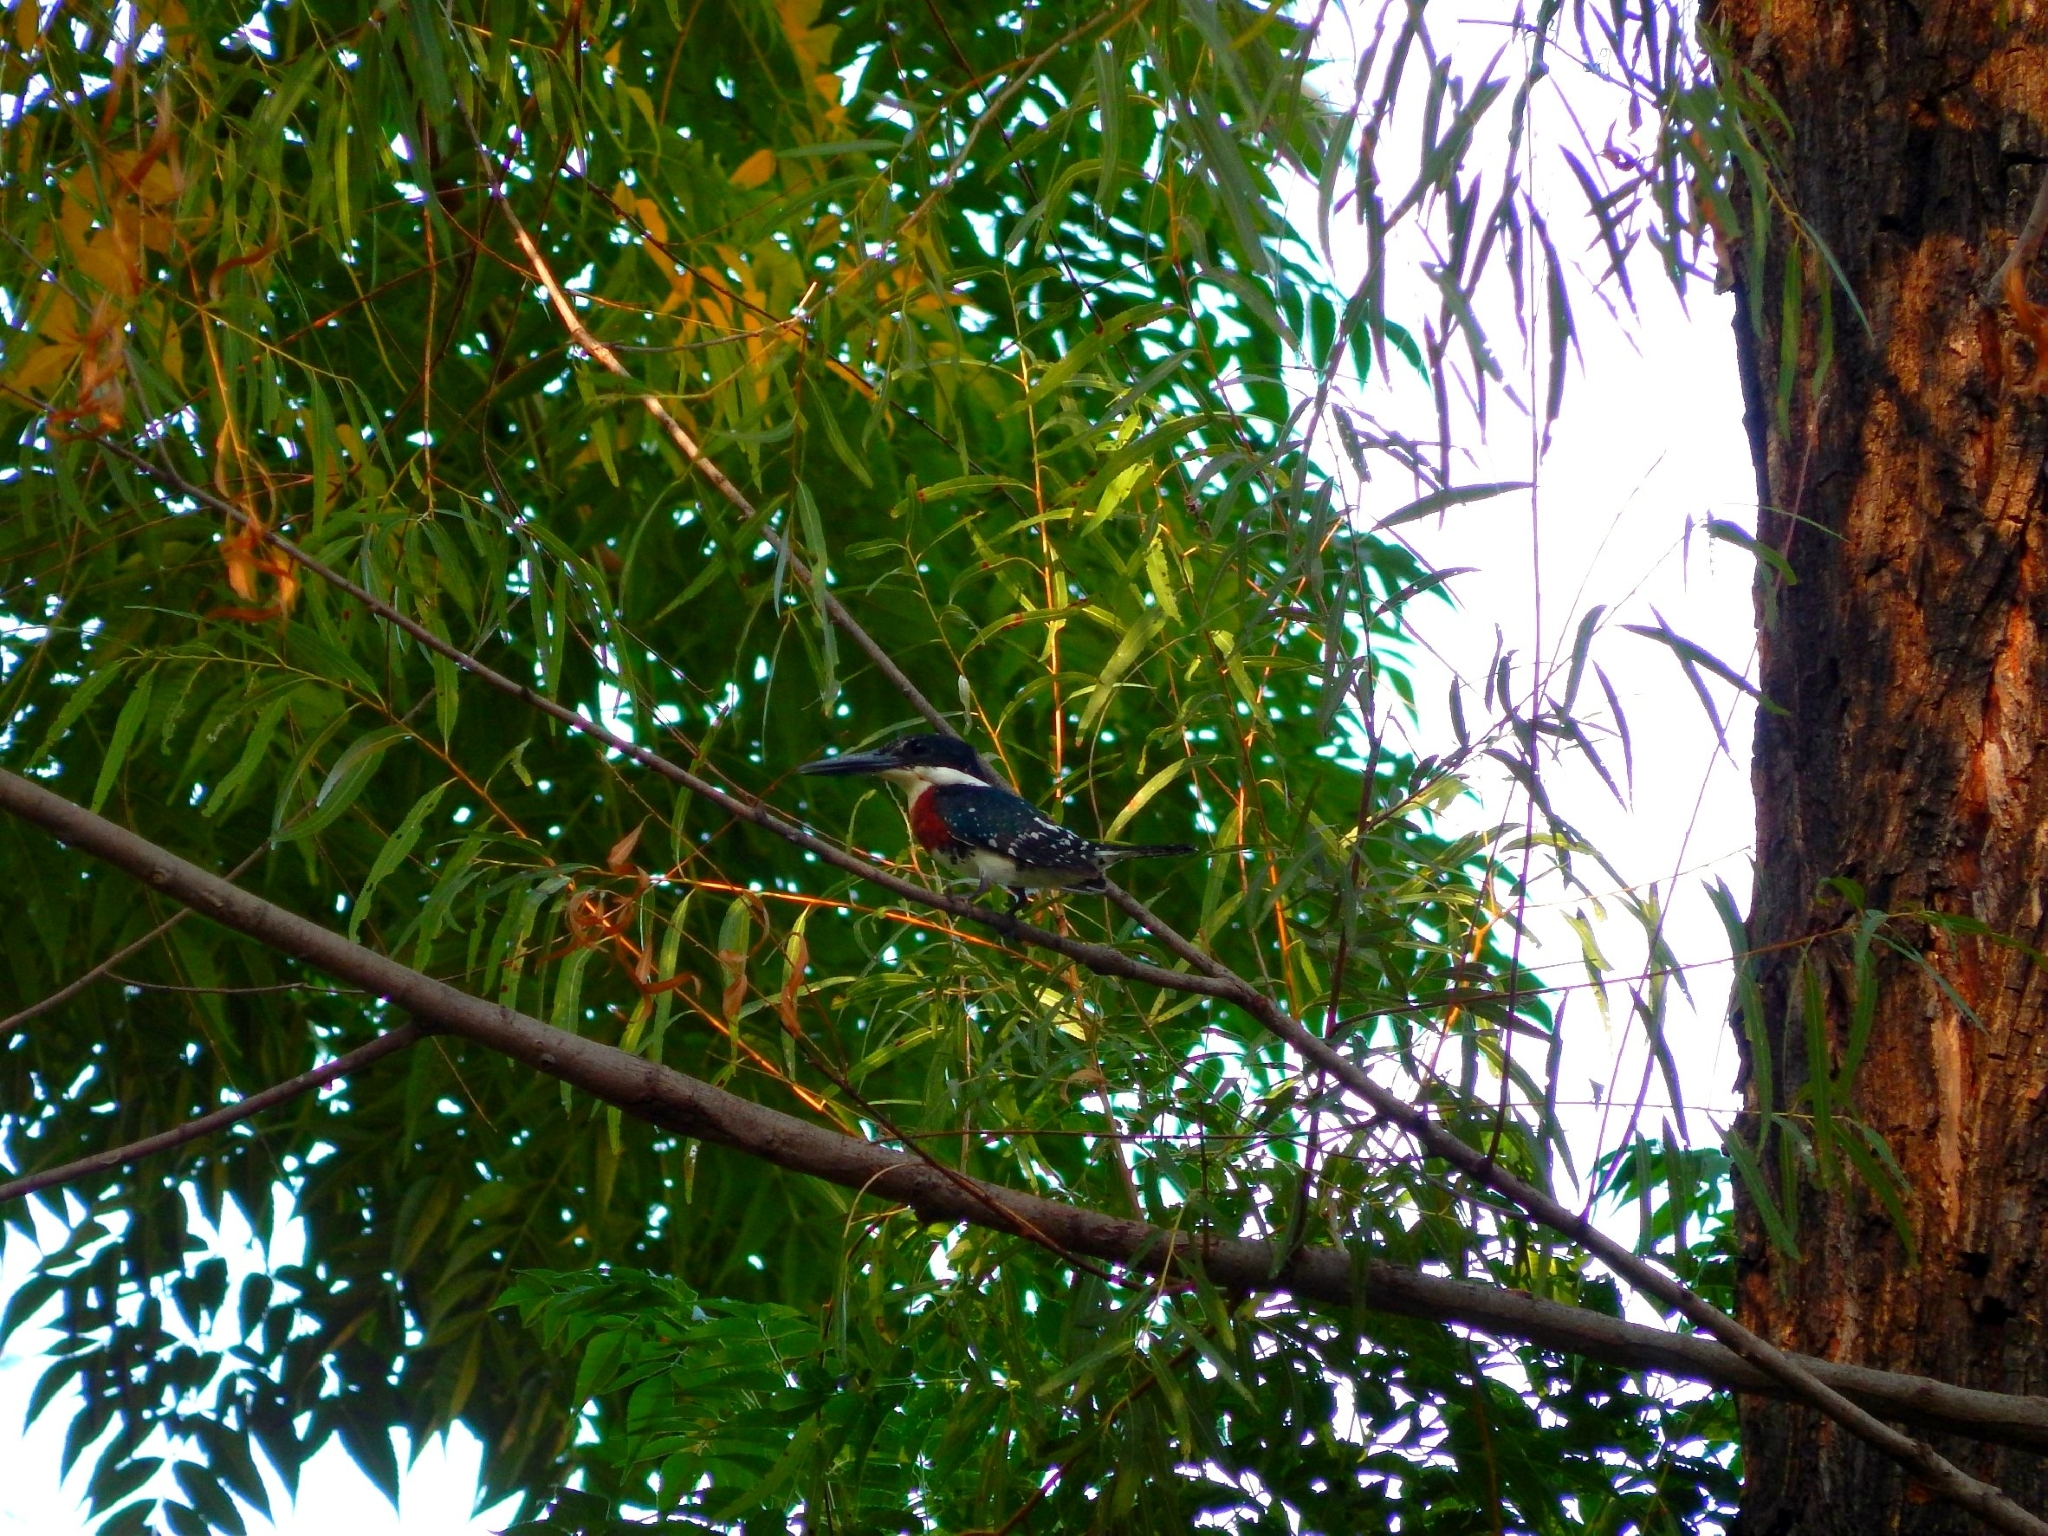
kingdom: Animalia
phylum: Chordata
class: Aves
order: Coraciiformes
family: Alcedinidae
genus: Chloroceryle
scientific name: Chloroceryle americana
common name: Green kingfisher
